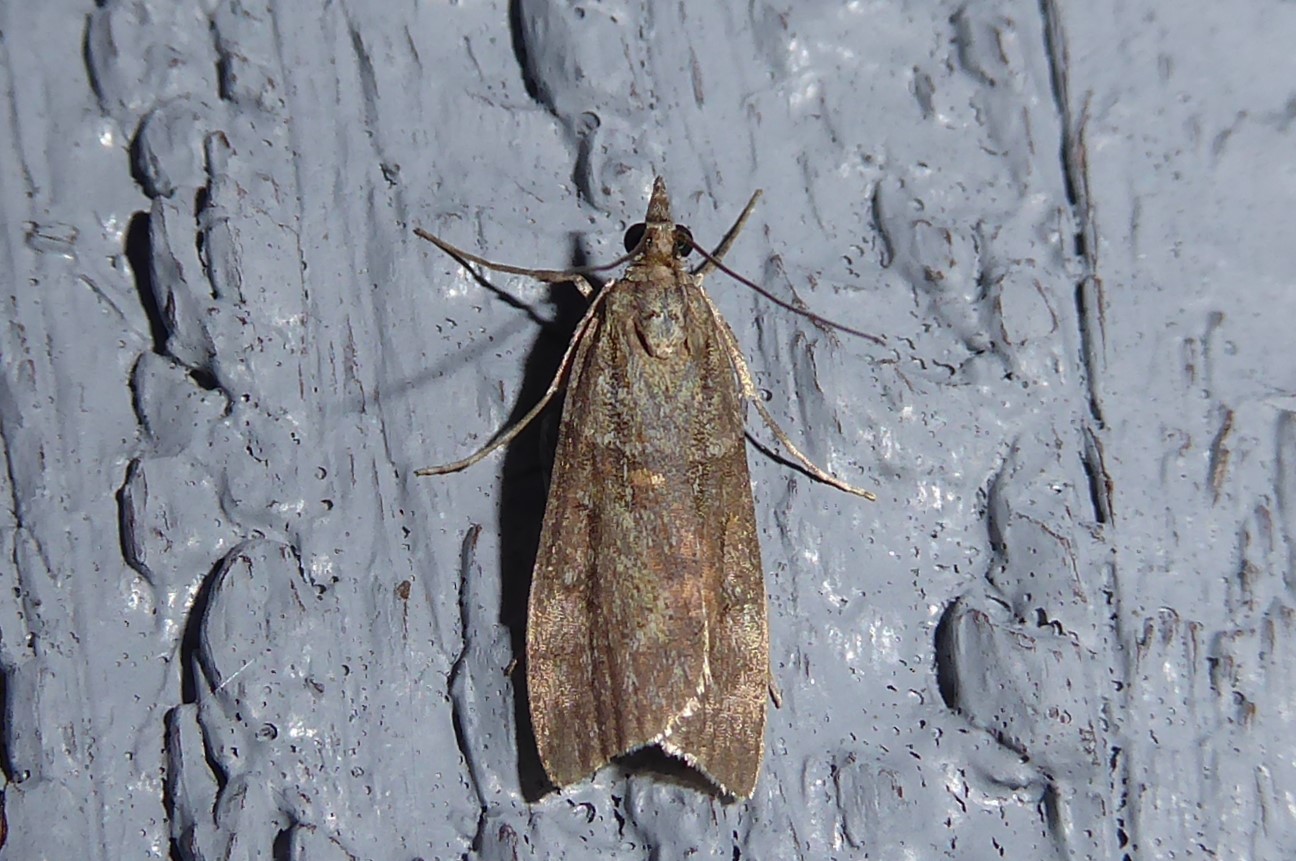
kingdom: Animalia
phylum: Arthropoda
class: Insecta
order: Lepidoptera
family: Crambidae
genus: Eudonia
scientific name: Eudonia submarginalis
